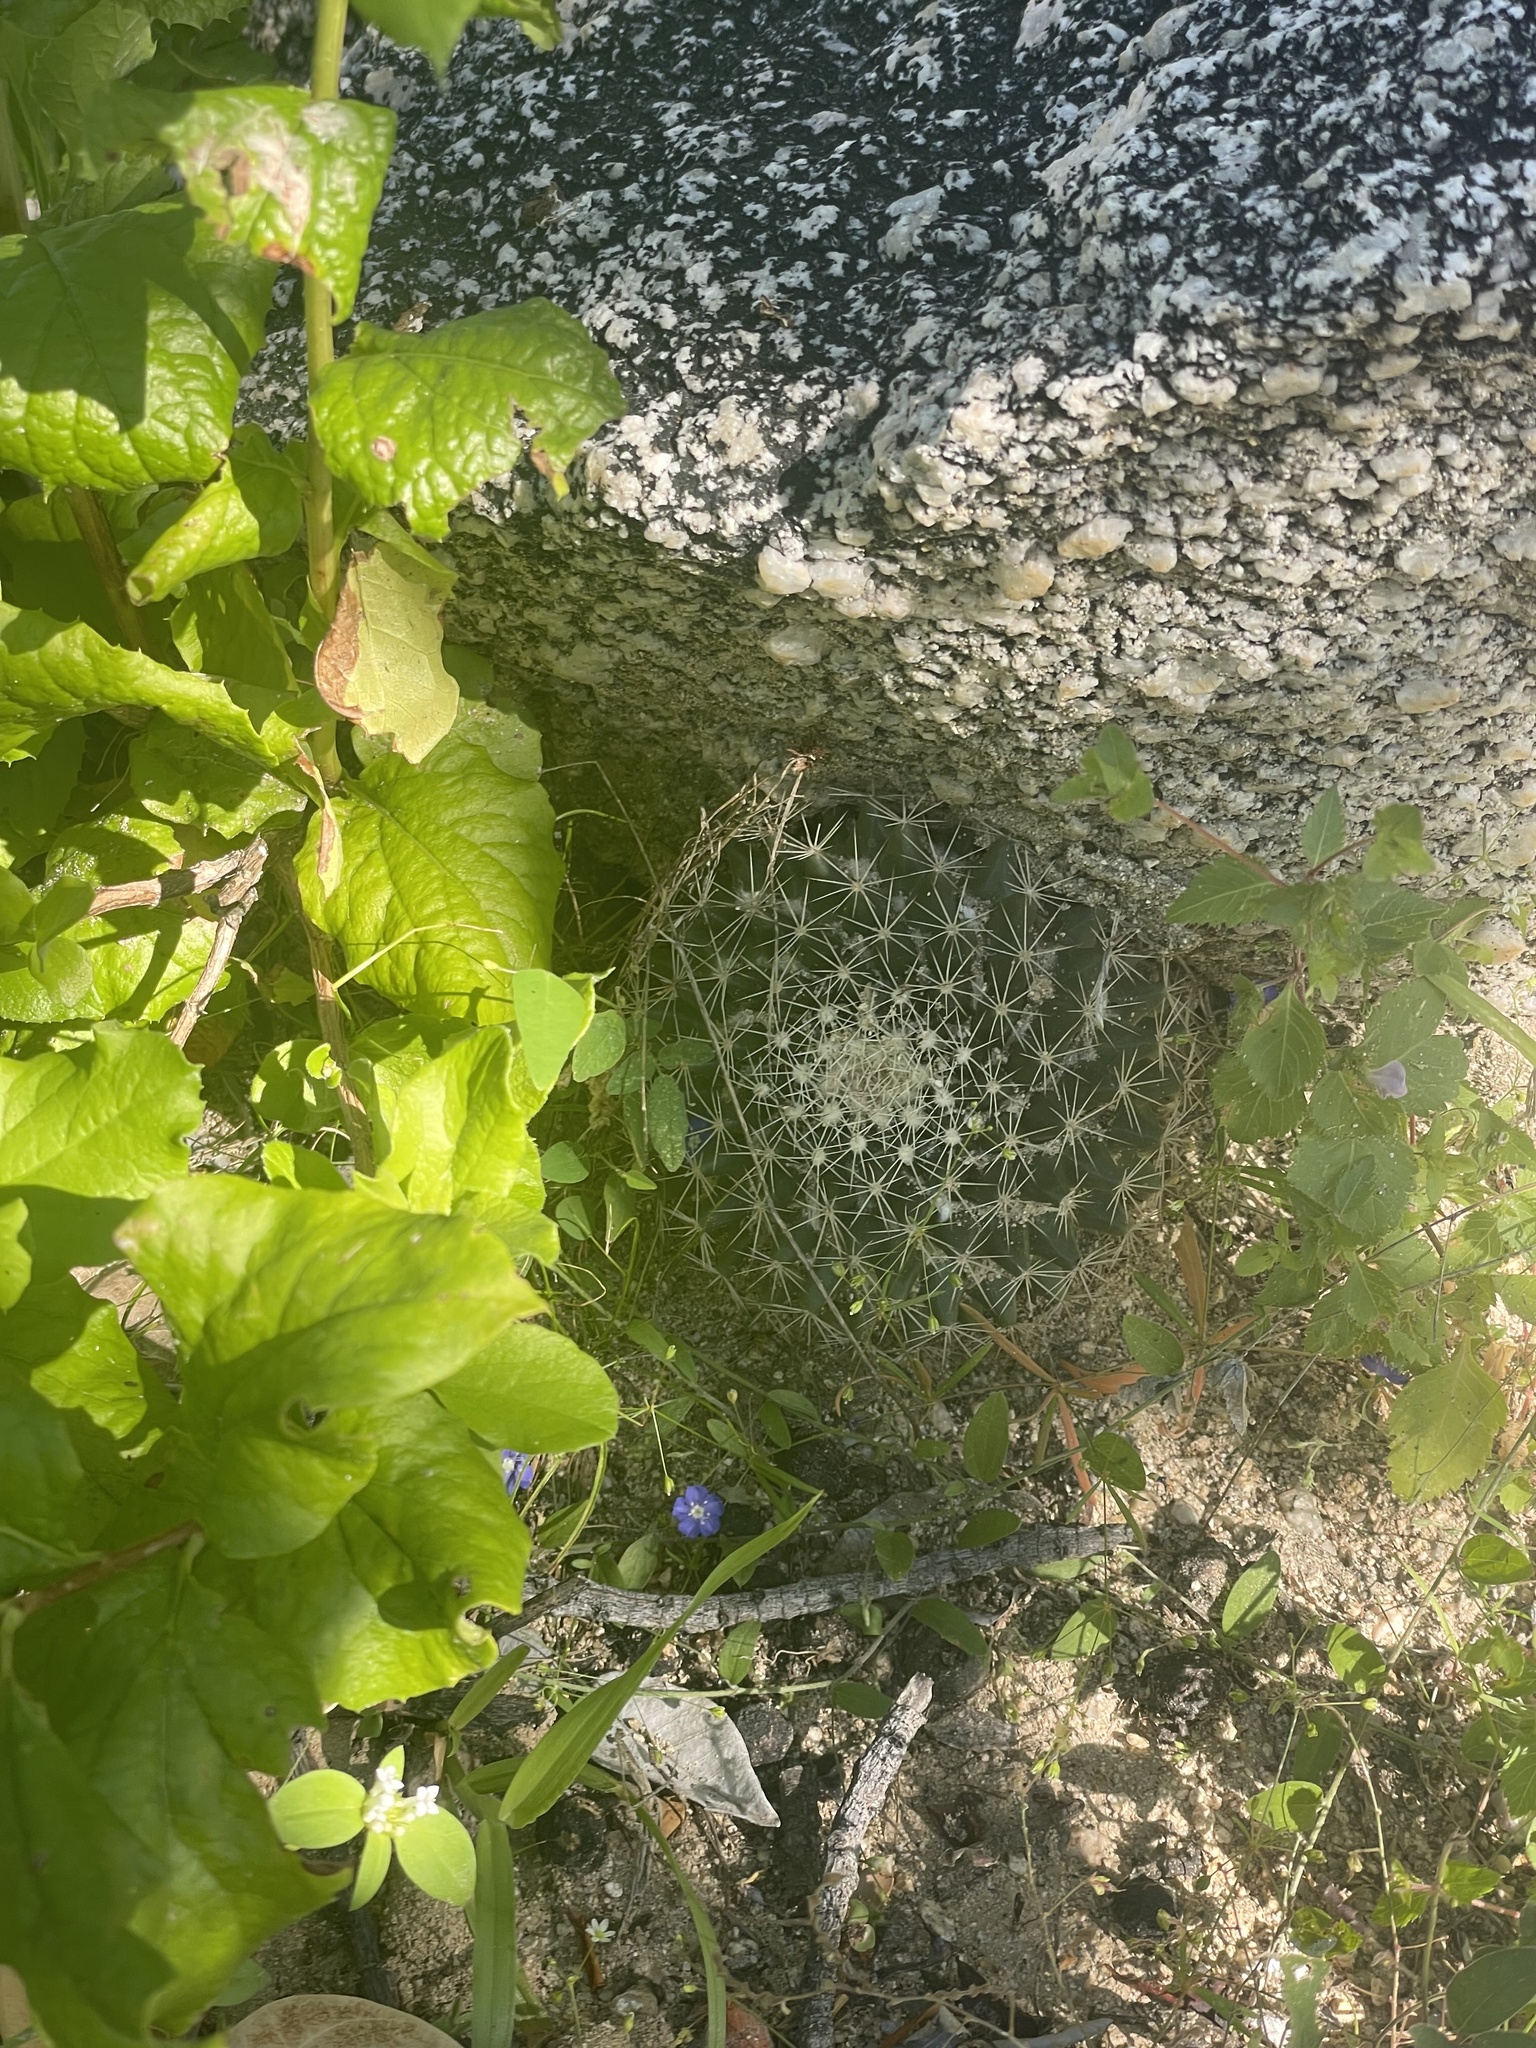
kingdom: Plantae
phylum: Tracheophyta
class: Magnoliopsida
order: Caryophyllales
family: Cactaceae
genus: Mammillaria
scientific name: Mammillaria petrophila
